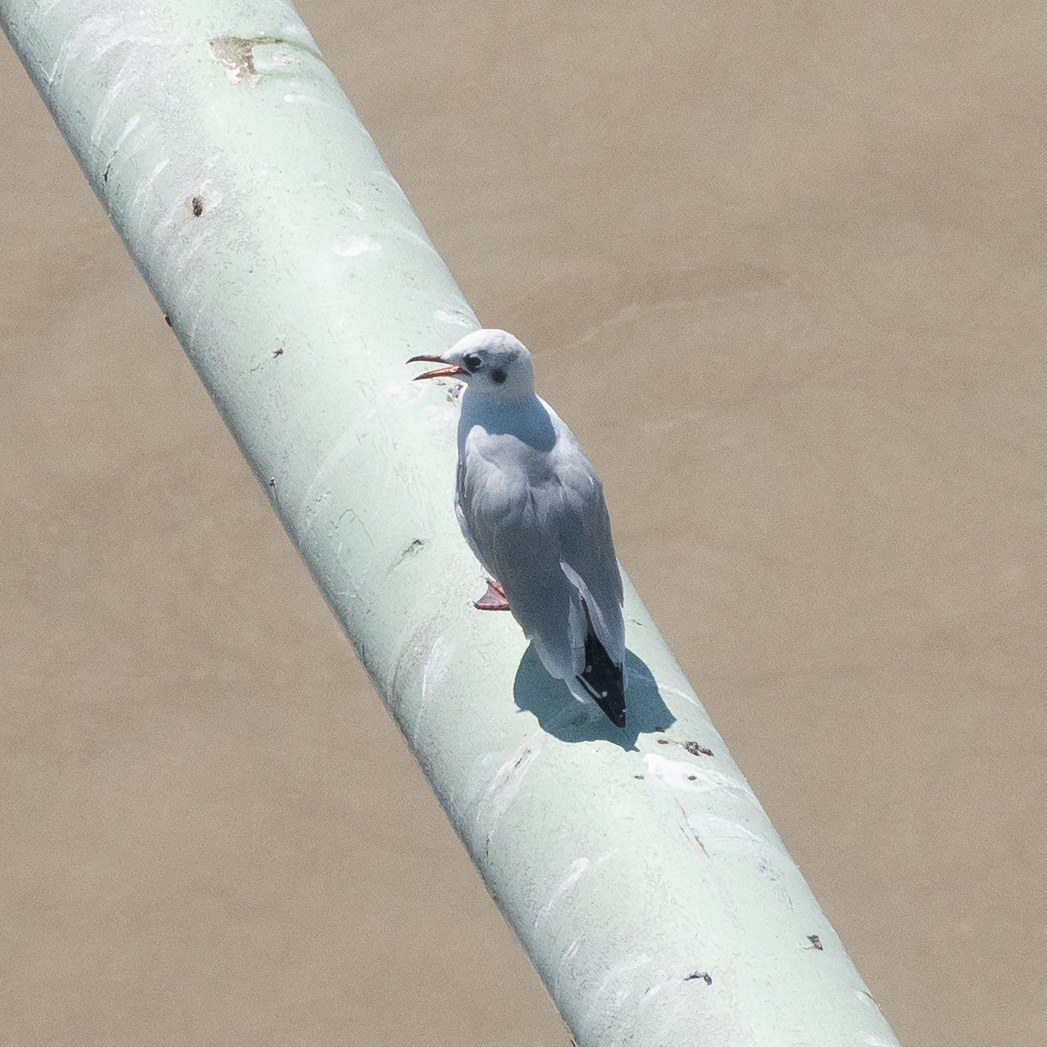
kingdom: Animalia
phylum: Chordata
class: Aves
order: Charadriiformes
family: Laridae
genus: Chroicocephalus
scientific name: Chroicocephalus ridibundus
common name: Black-headed gull
